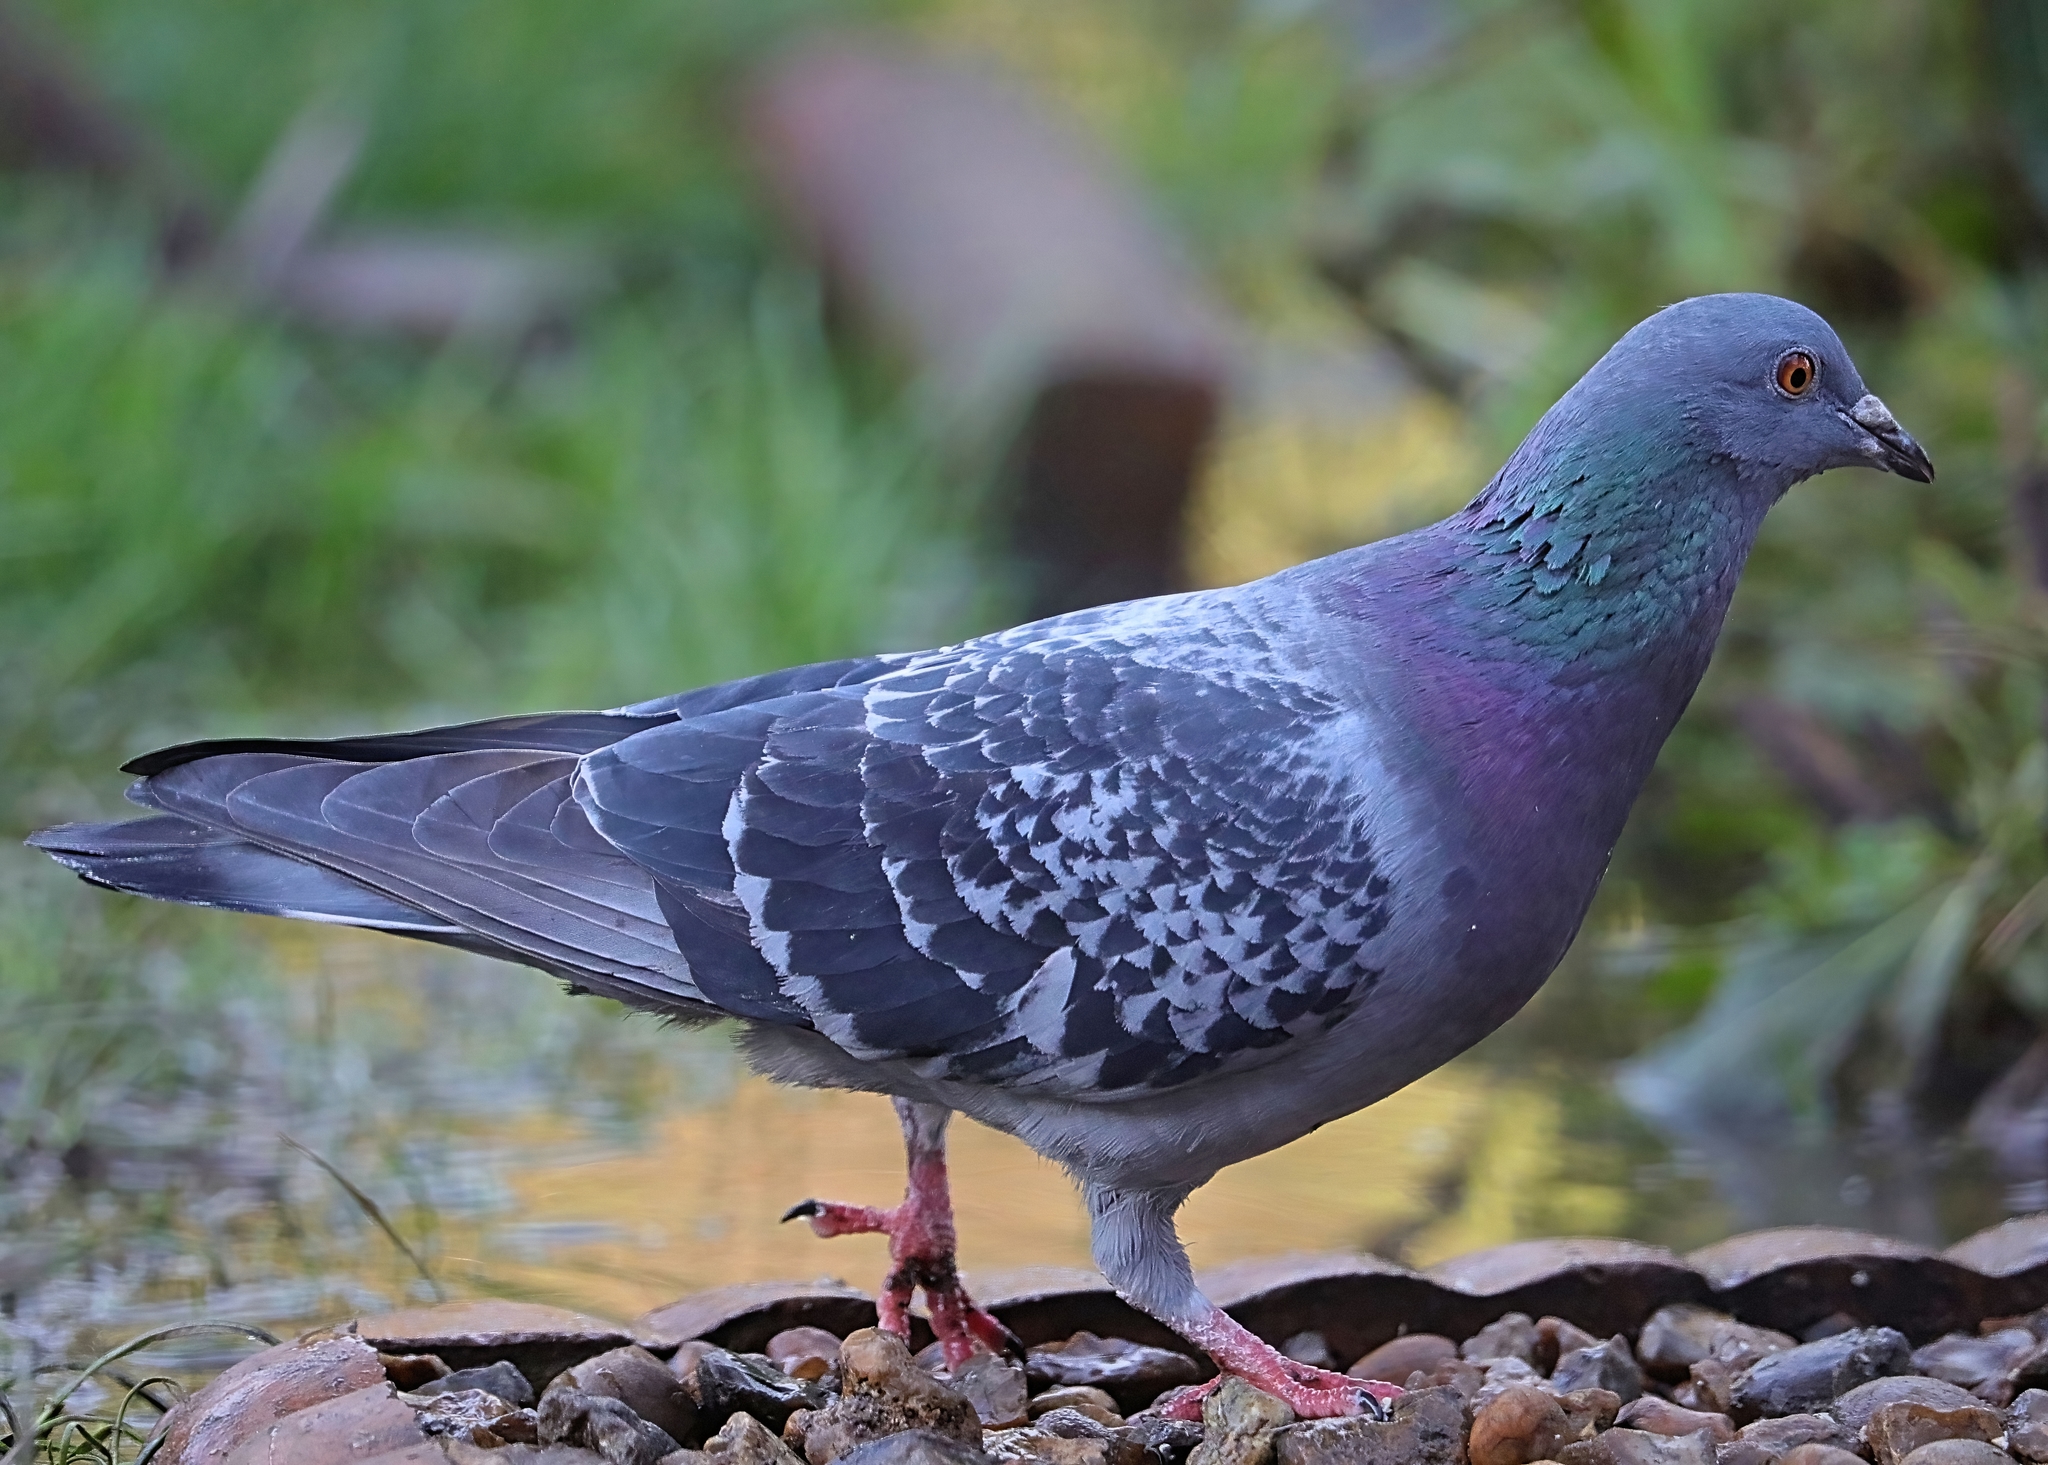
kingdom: Animalia
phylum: Chordata
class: Aves
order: Columbiformes
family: Columbidae
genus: Columba
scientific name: Columba livia
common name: Rock pigeon
